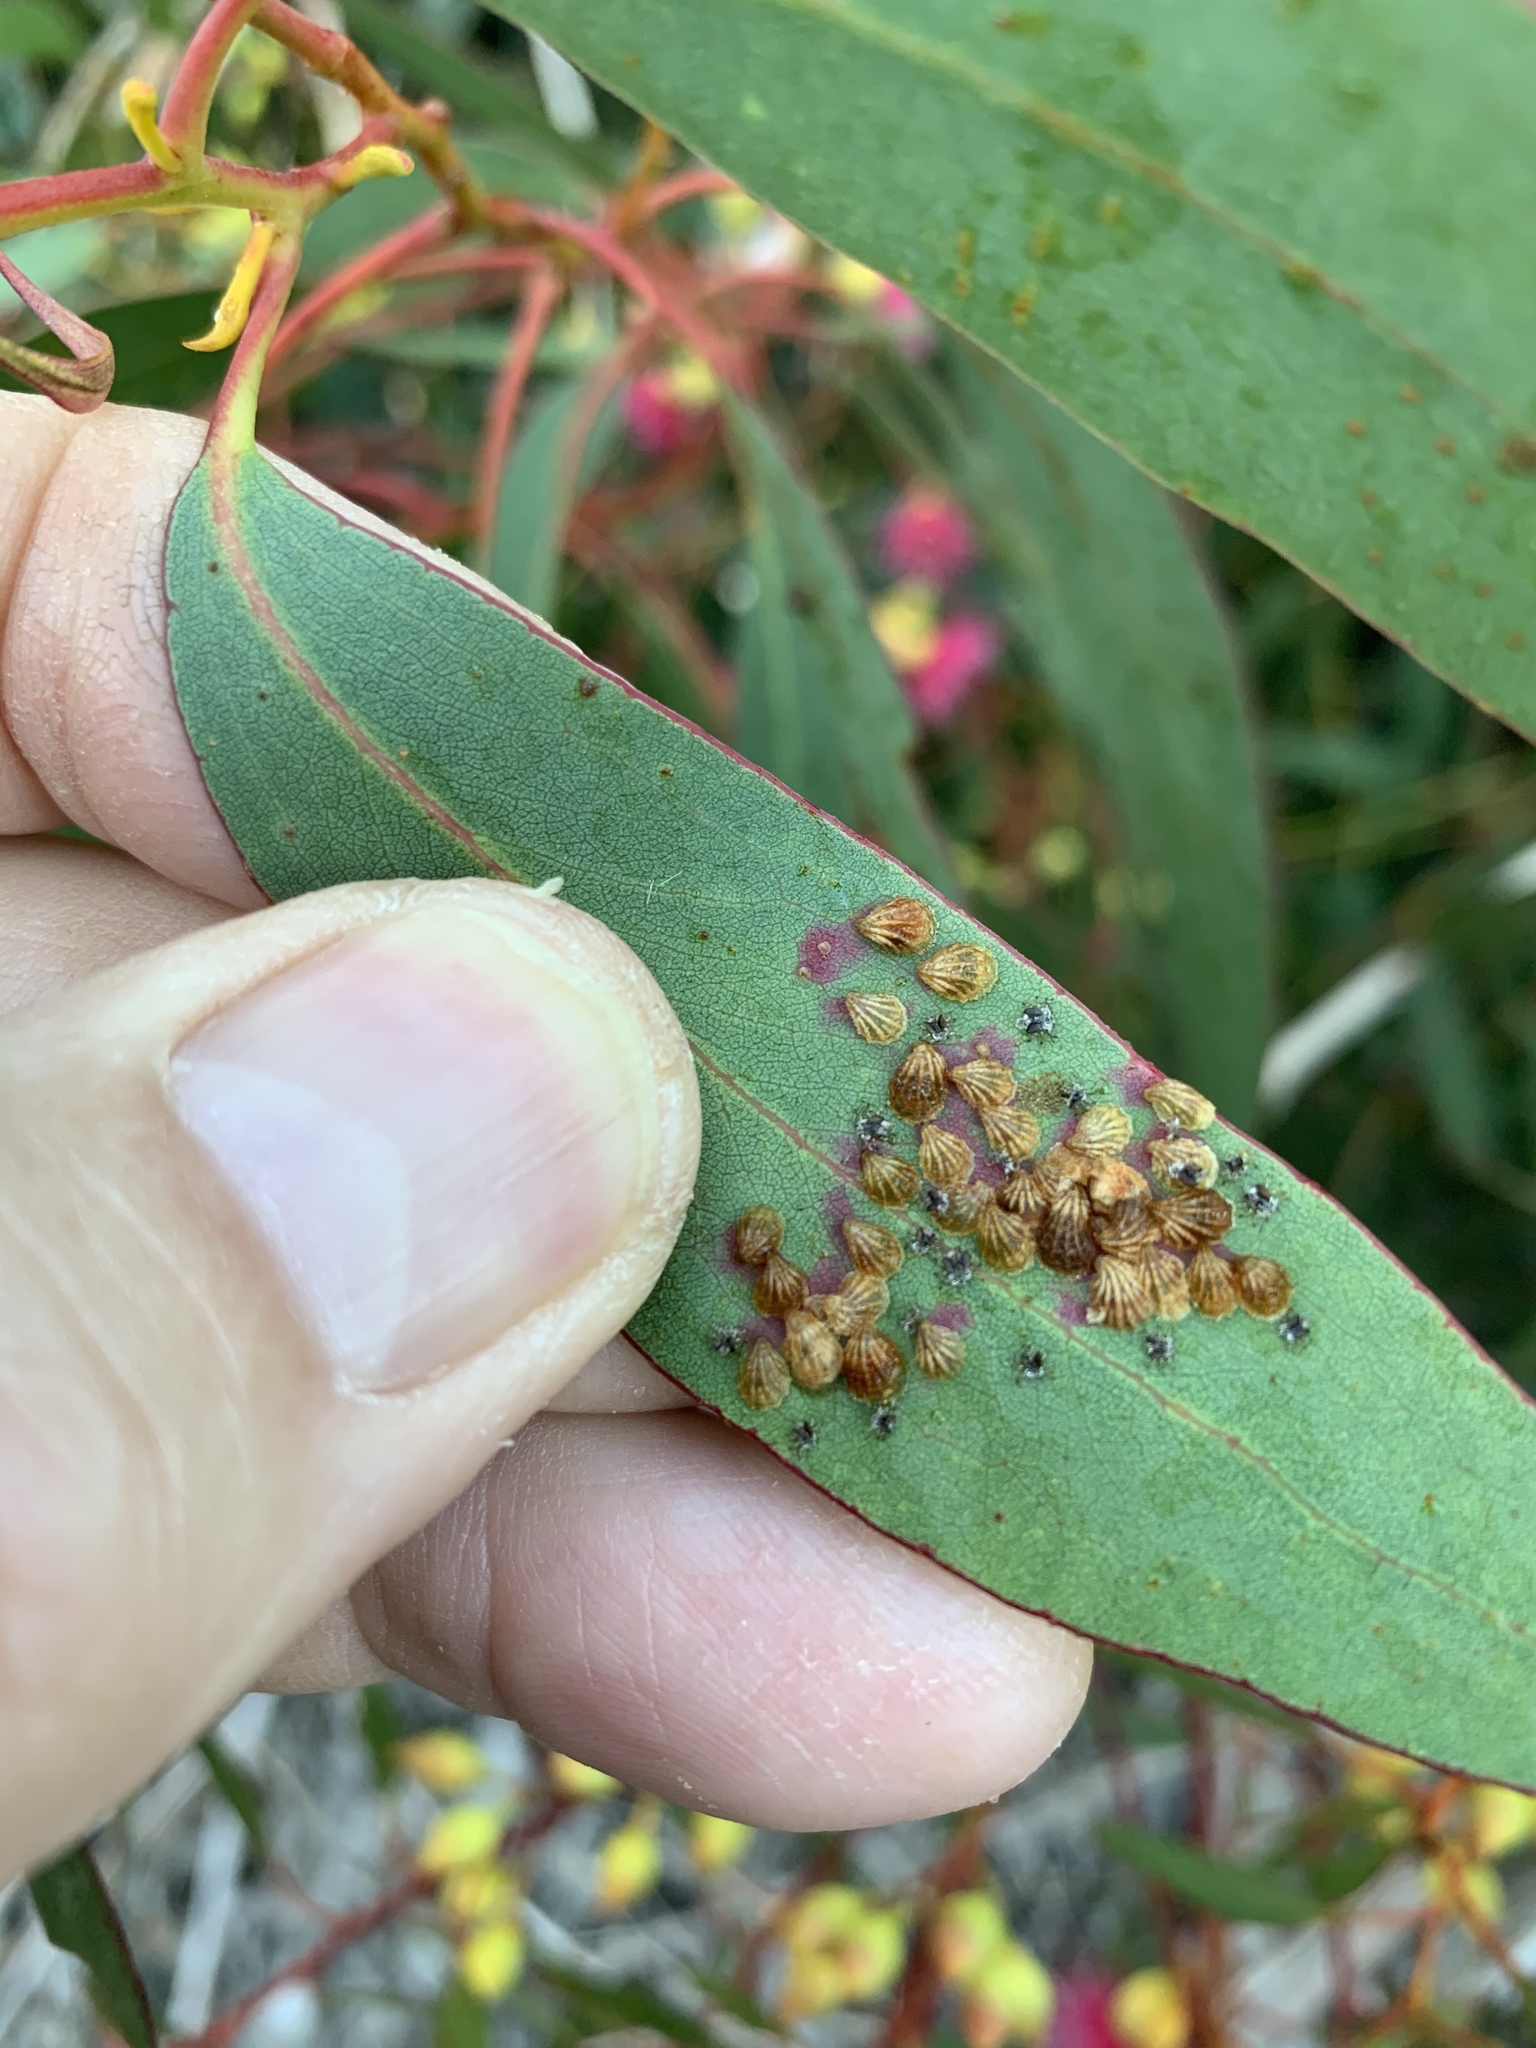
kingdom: Animalia
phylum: Arthropoda
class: Insecta
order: Hemiptera
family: Aphalaridae
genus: Spondyliaspis
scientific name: Spondyliaspis plicatuloides
